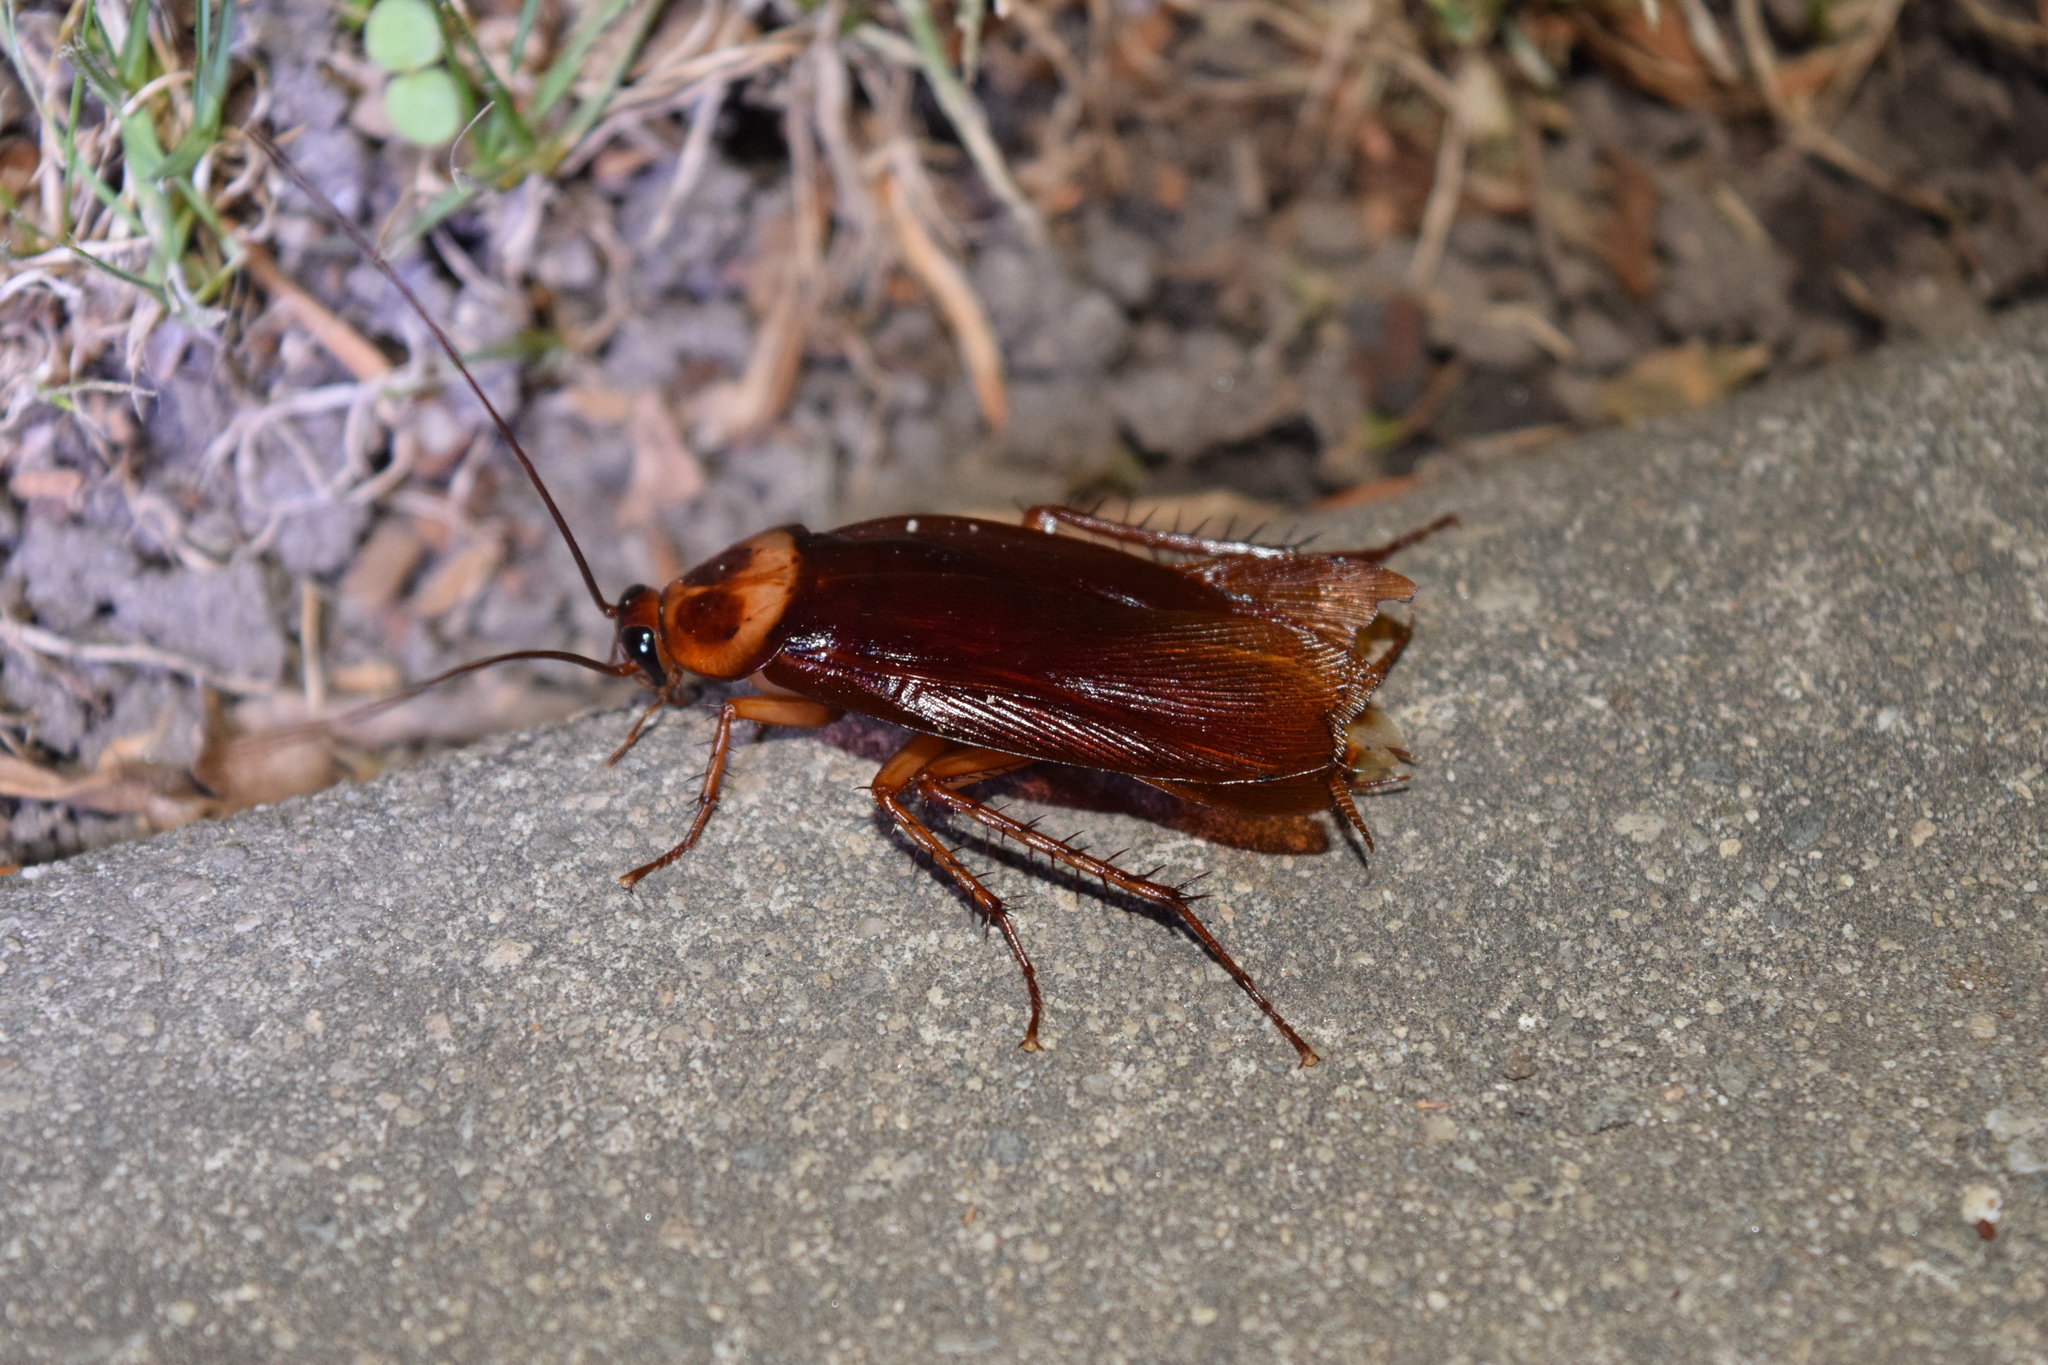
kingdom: Animalia
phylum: Arthropoda
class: Insecta
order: Blattodea
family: Blattidae
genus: Periplaneta
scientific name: Periplaneta americana
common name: American cockroach
